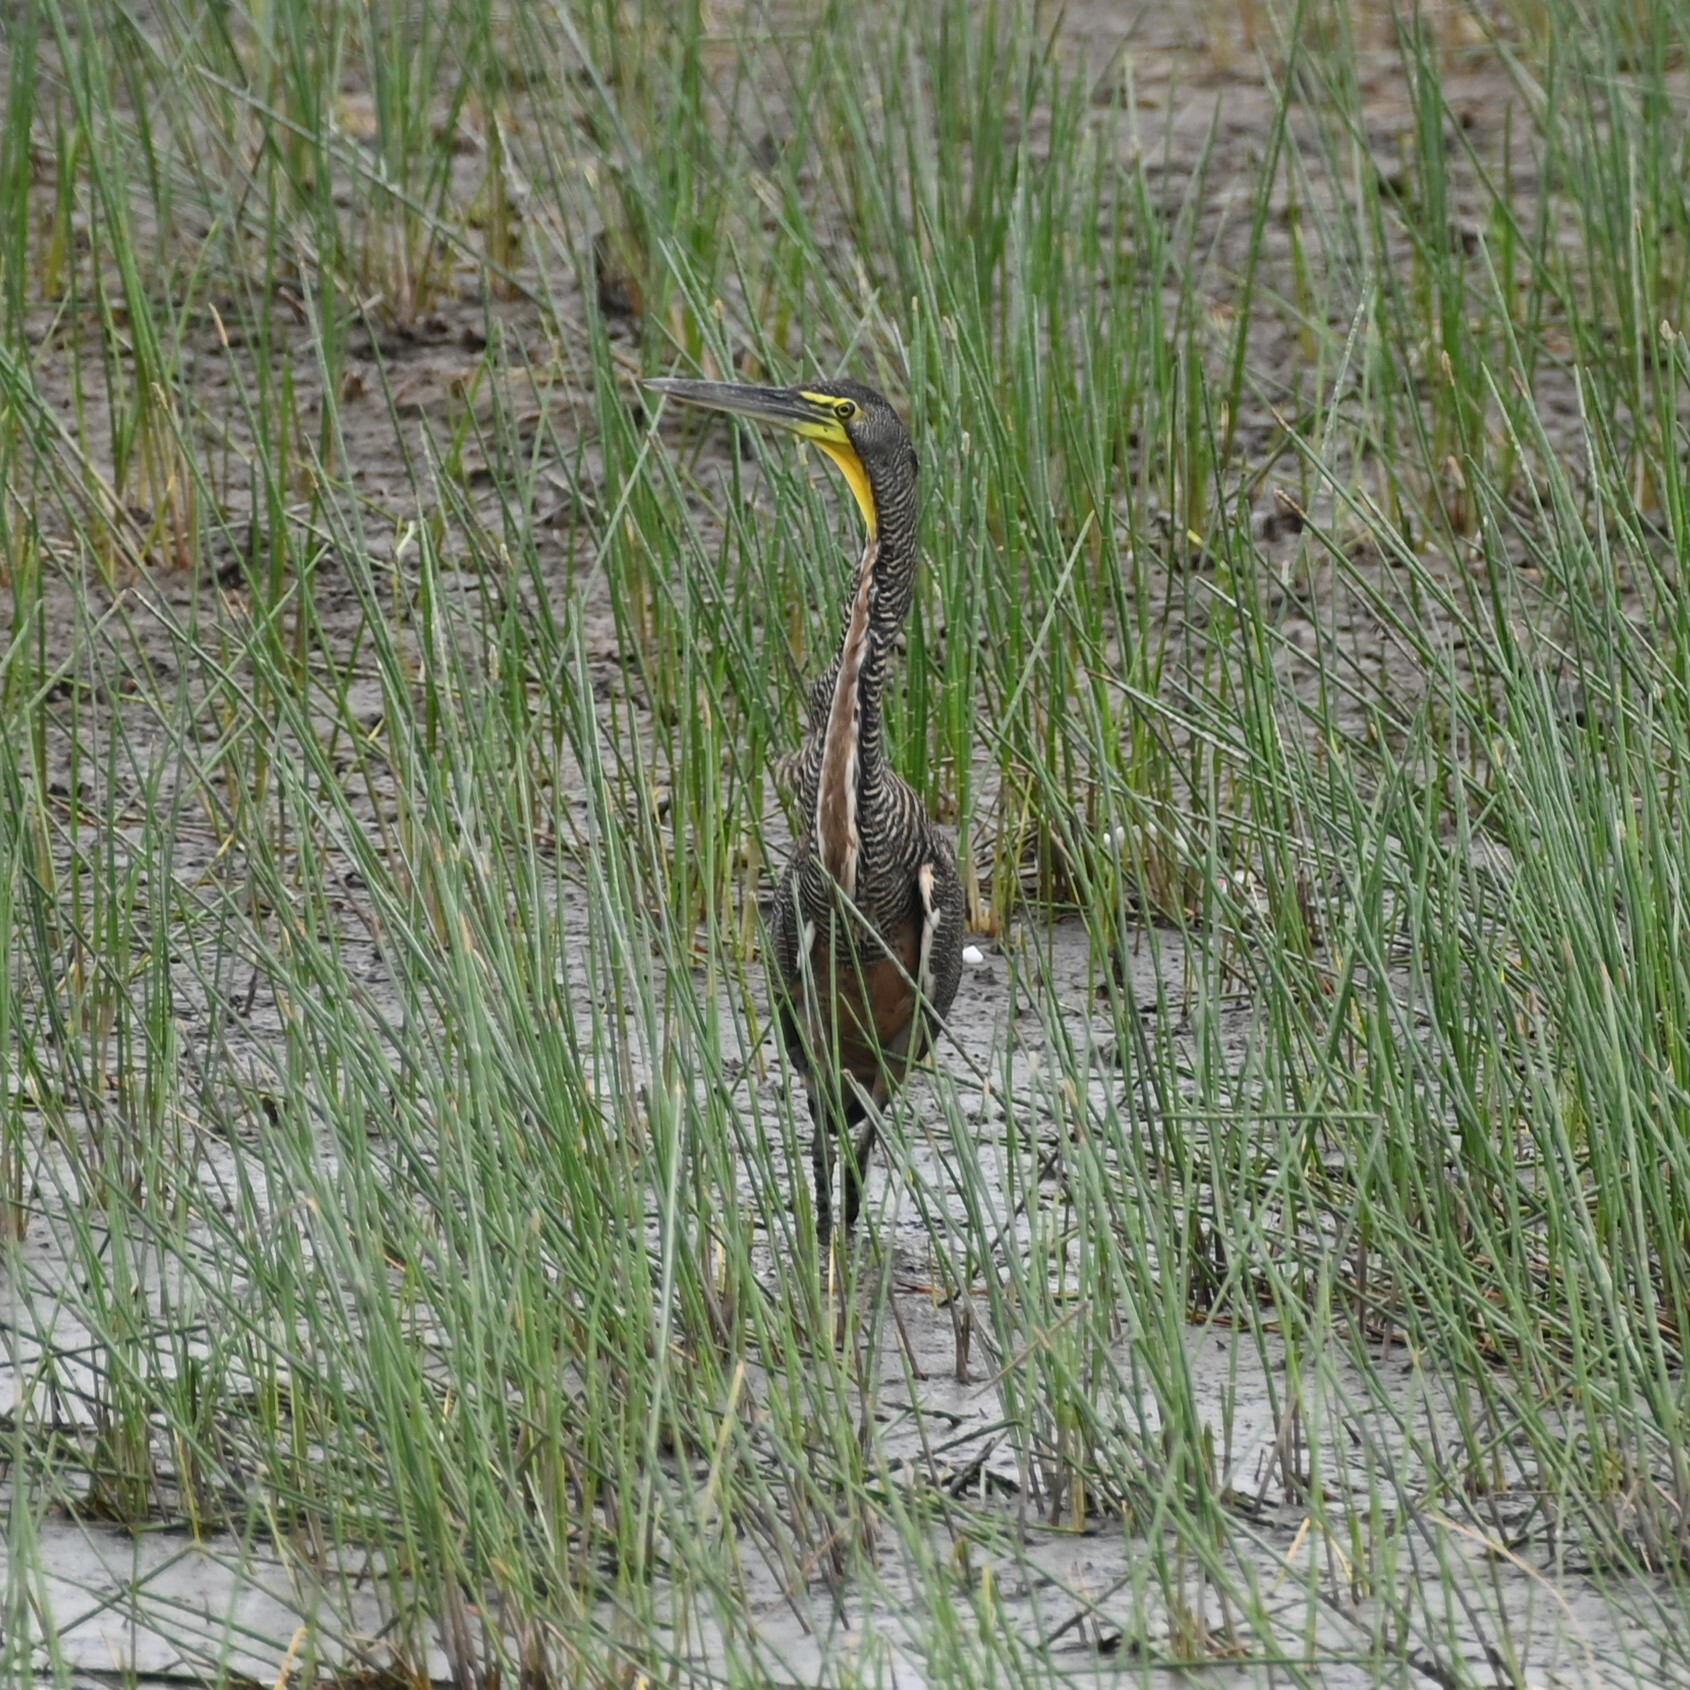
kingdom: Animalia
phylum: Chordata
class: Aves
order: Pelecaniformes
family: Ardeidae
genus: Tigrisoma
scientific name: Tigrisoma mexicanum
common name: Bare-throated tiger-heron
